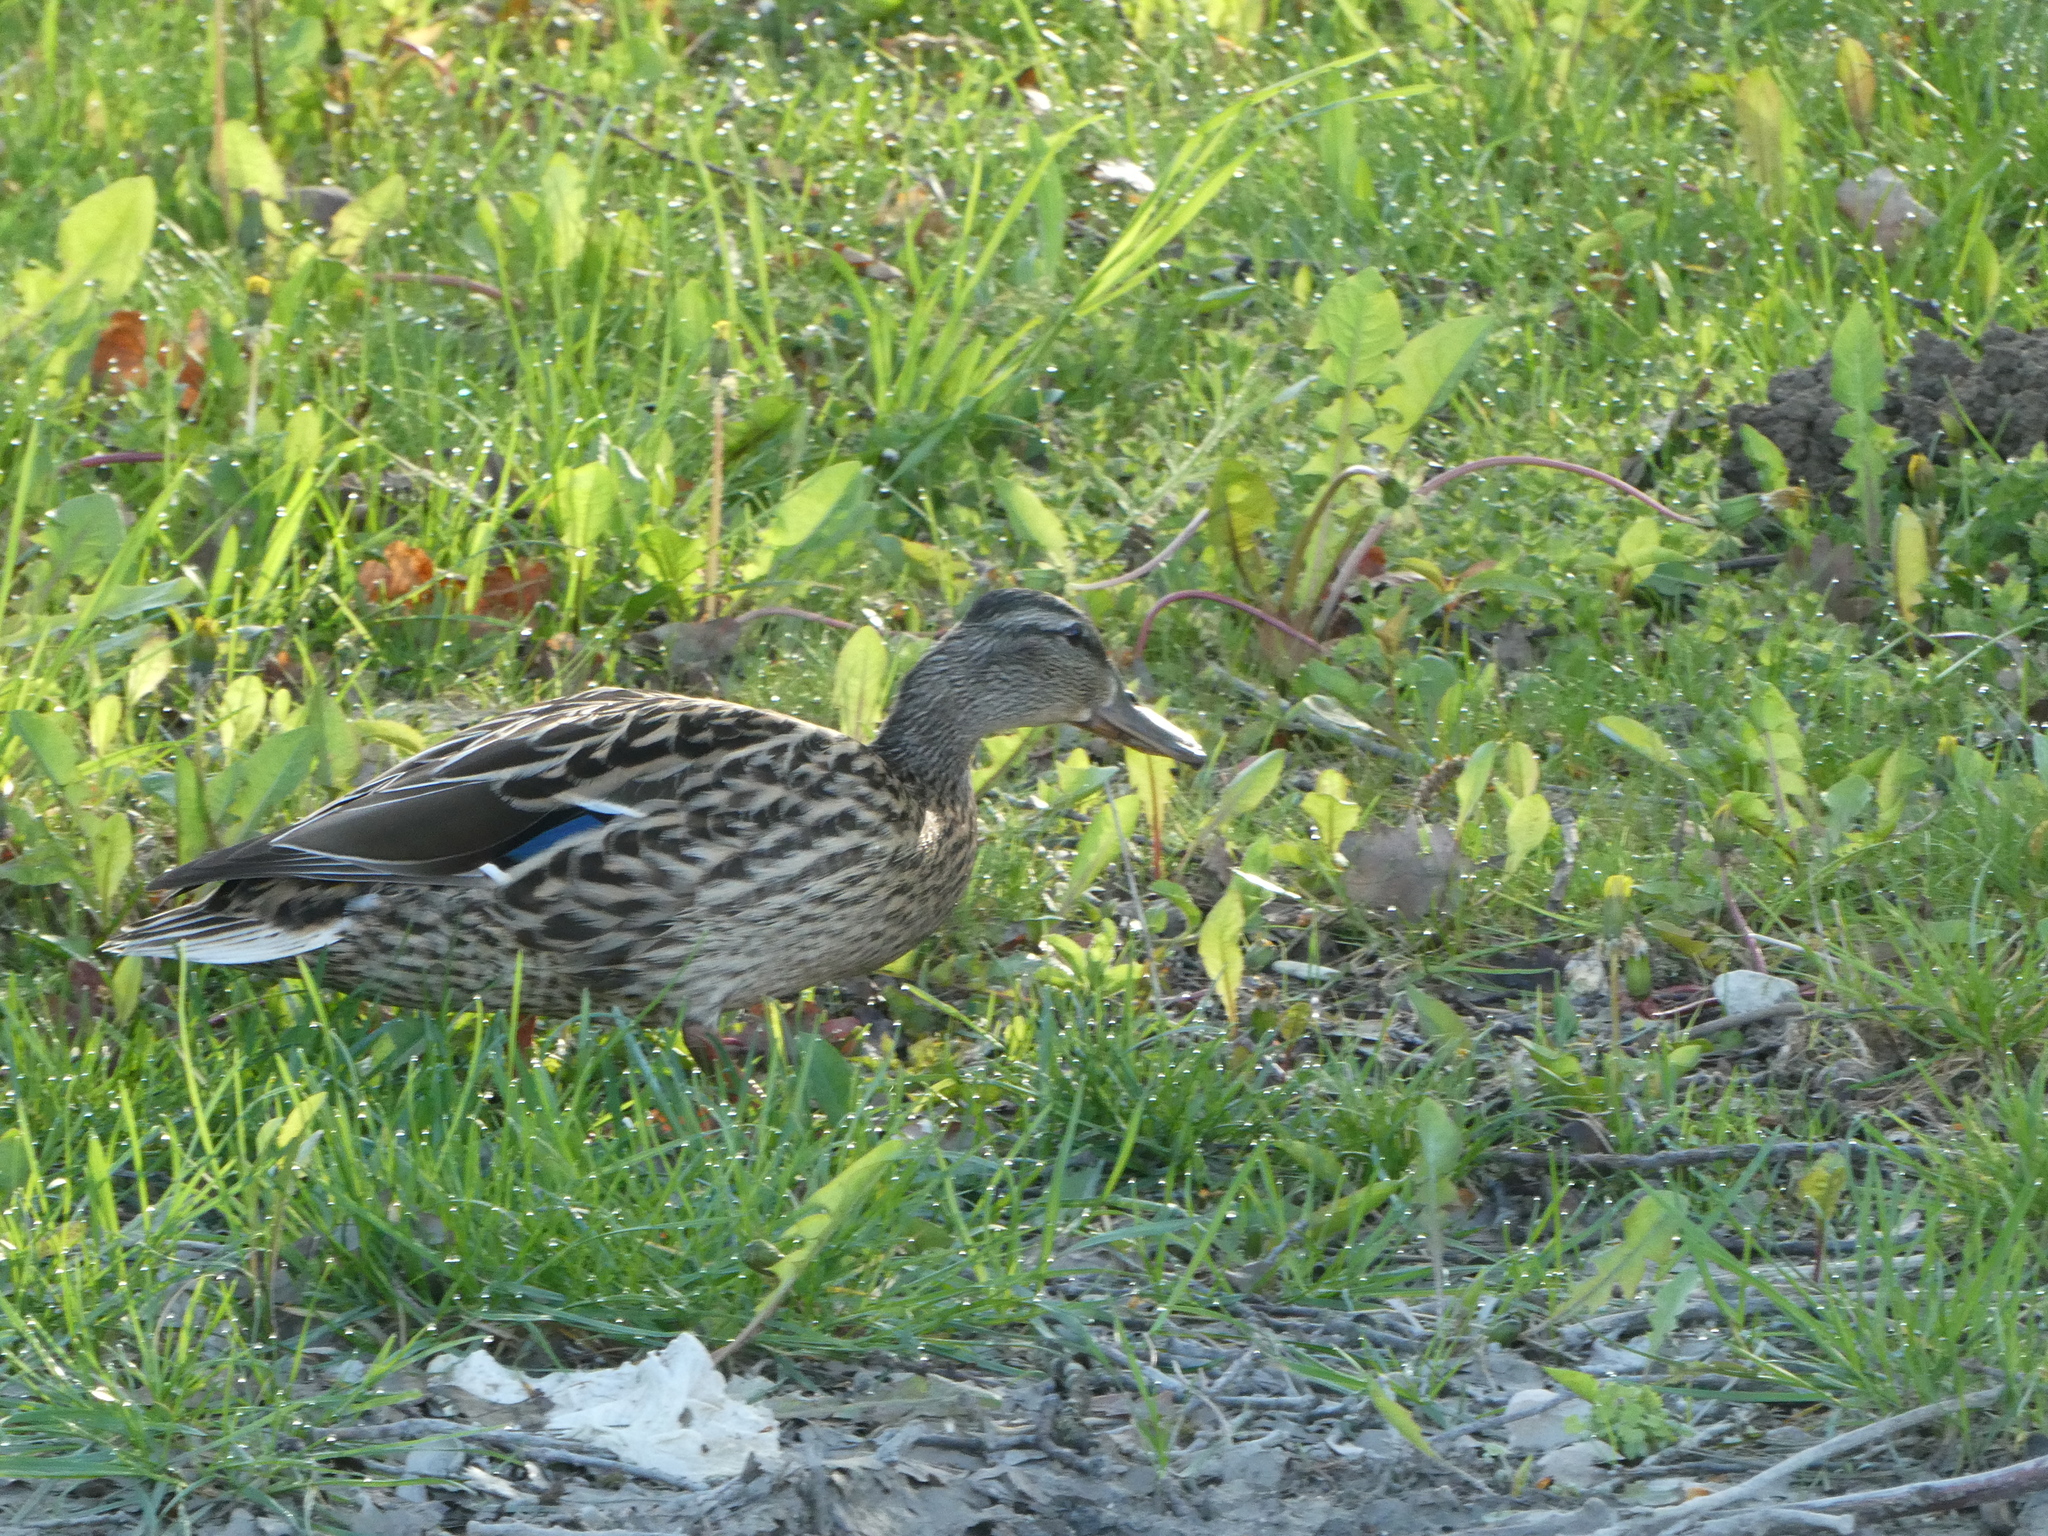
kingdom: Animalia
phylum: Chordata
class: Aves
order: Anseriformes
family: Anatidae
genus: Anas
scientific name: Anas platyrhynchos
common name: Mallard
